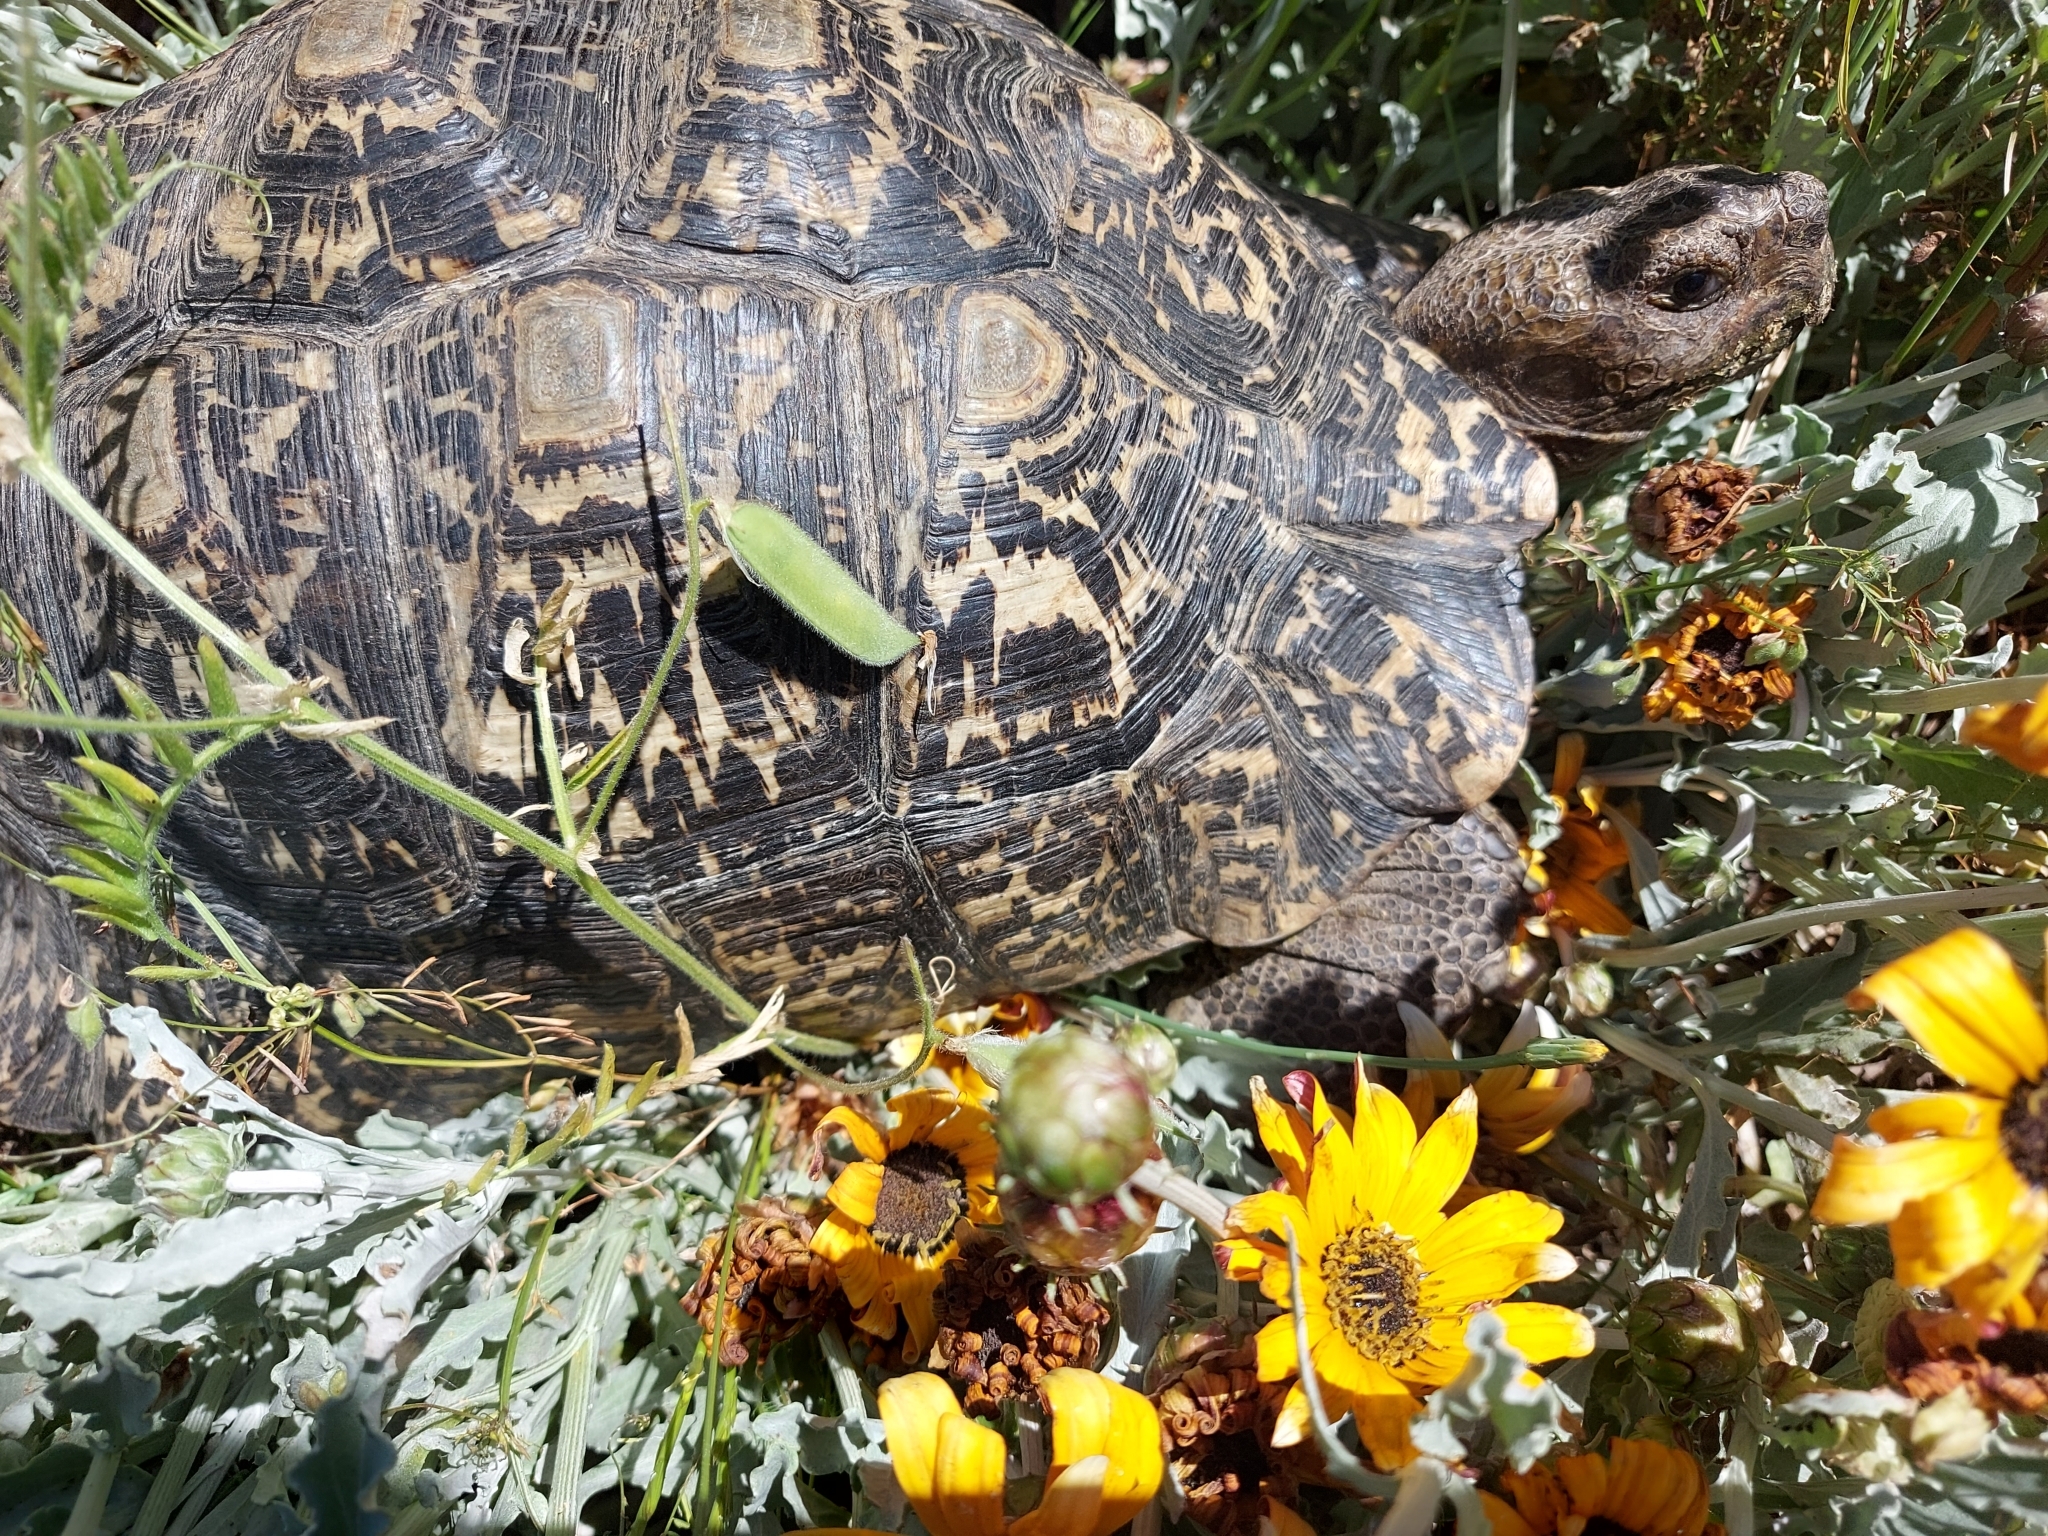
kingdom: Animalia
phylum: Chordata
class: Testudines
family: Testudinidae
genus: Stigmochelys
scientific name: Stigmochelys pardalis
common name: Leopard tortoise
